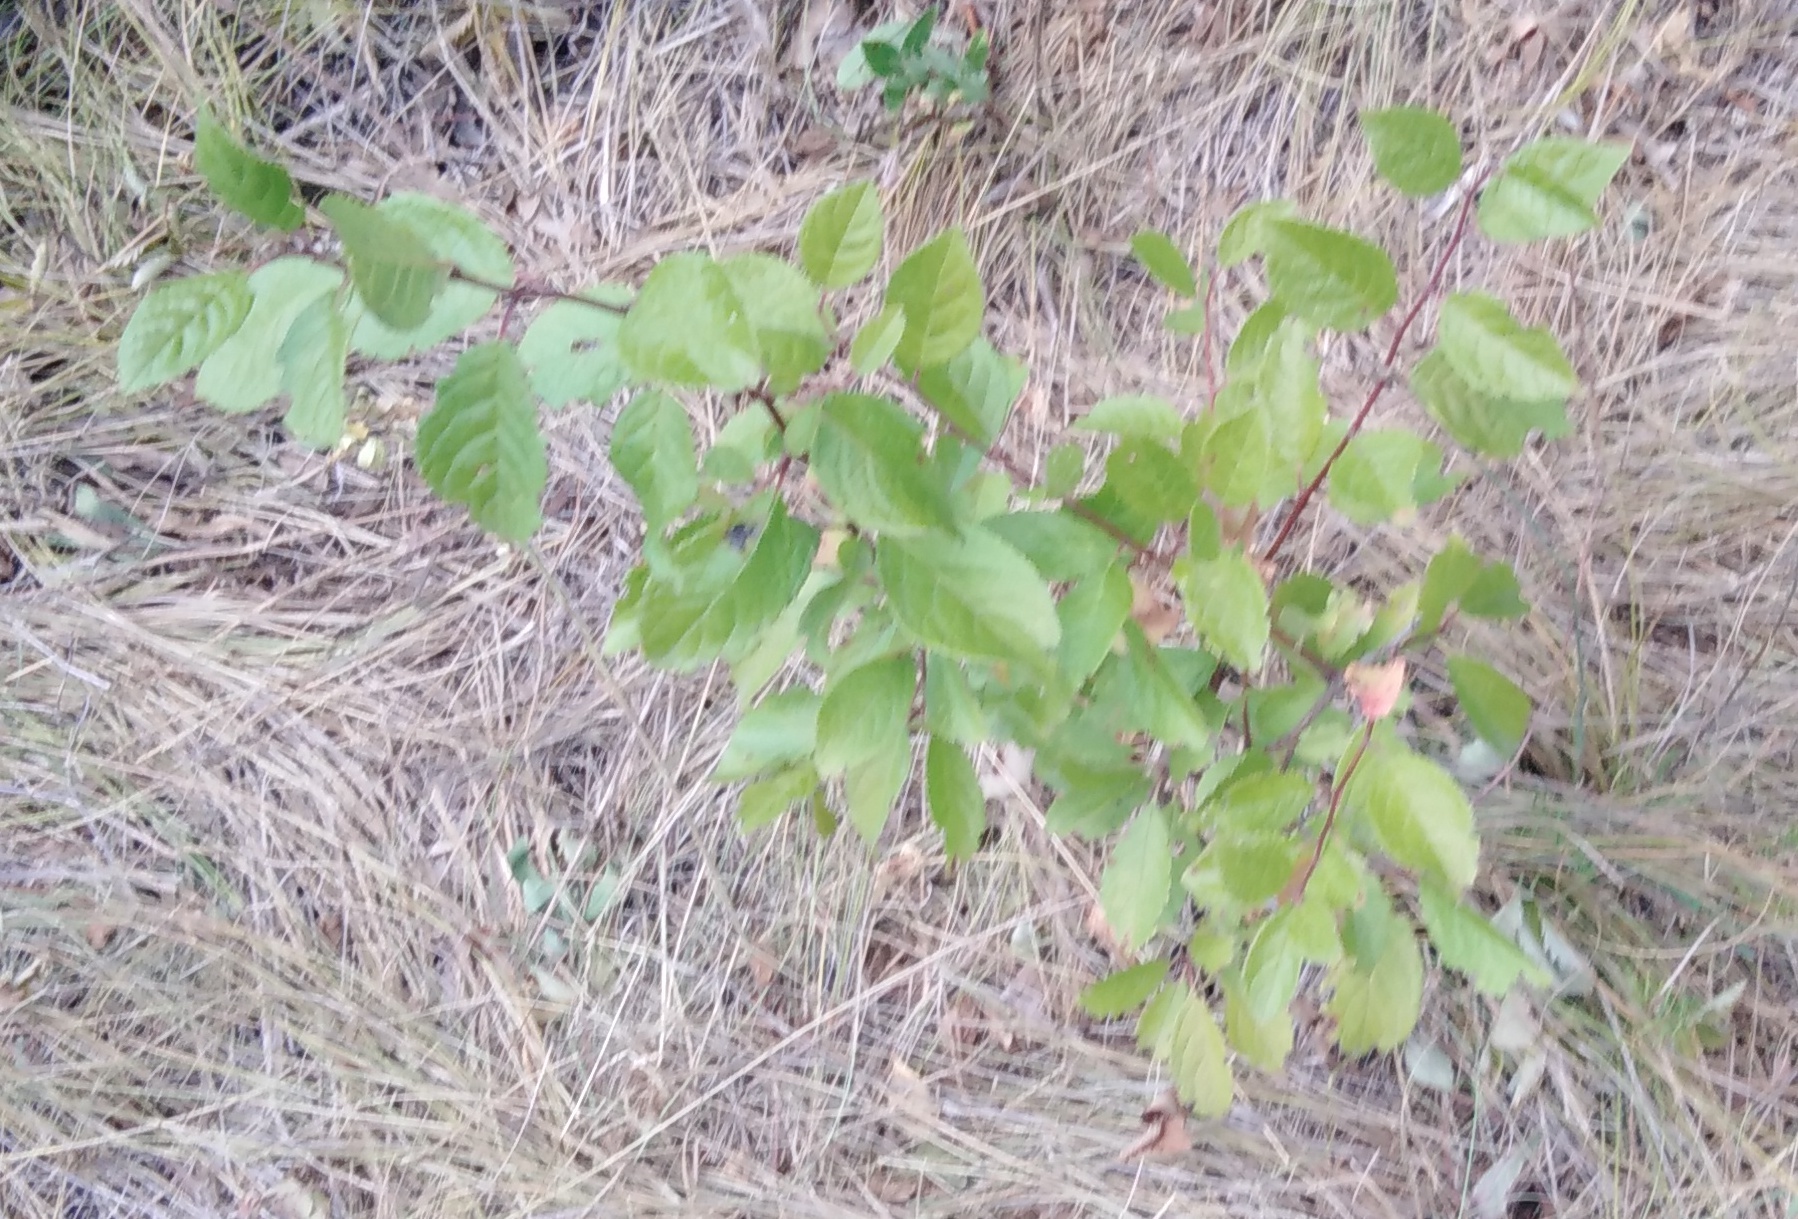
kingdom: Plantae
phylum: Tracheophyta
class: Magnoliopsida
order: Rosales
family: Rosaceae
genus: Prunus
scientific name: Prunus spinosa
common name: Blackthorn
